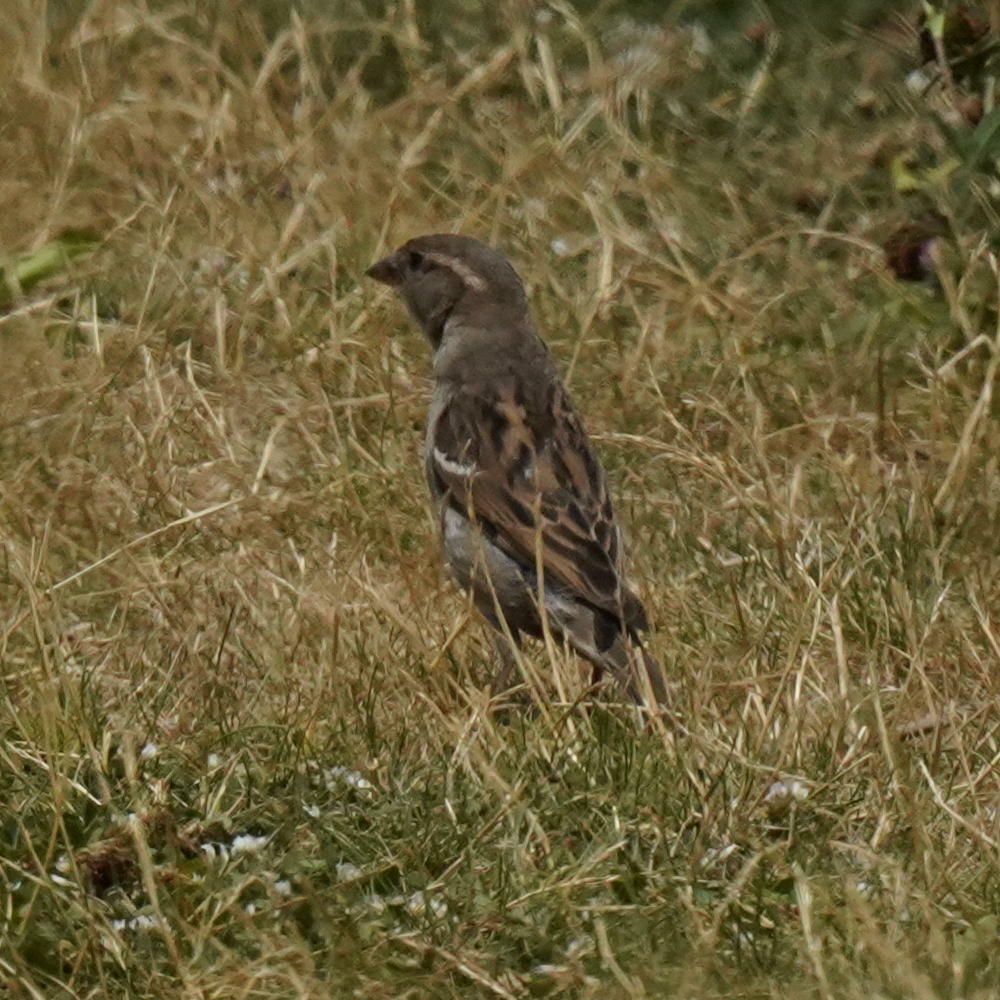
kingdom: Animalia
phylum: Chordata
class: Aves
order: Passeriformes
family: Passeridae
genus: Passer
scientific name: Passer domesticus
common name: House sparrow
